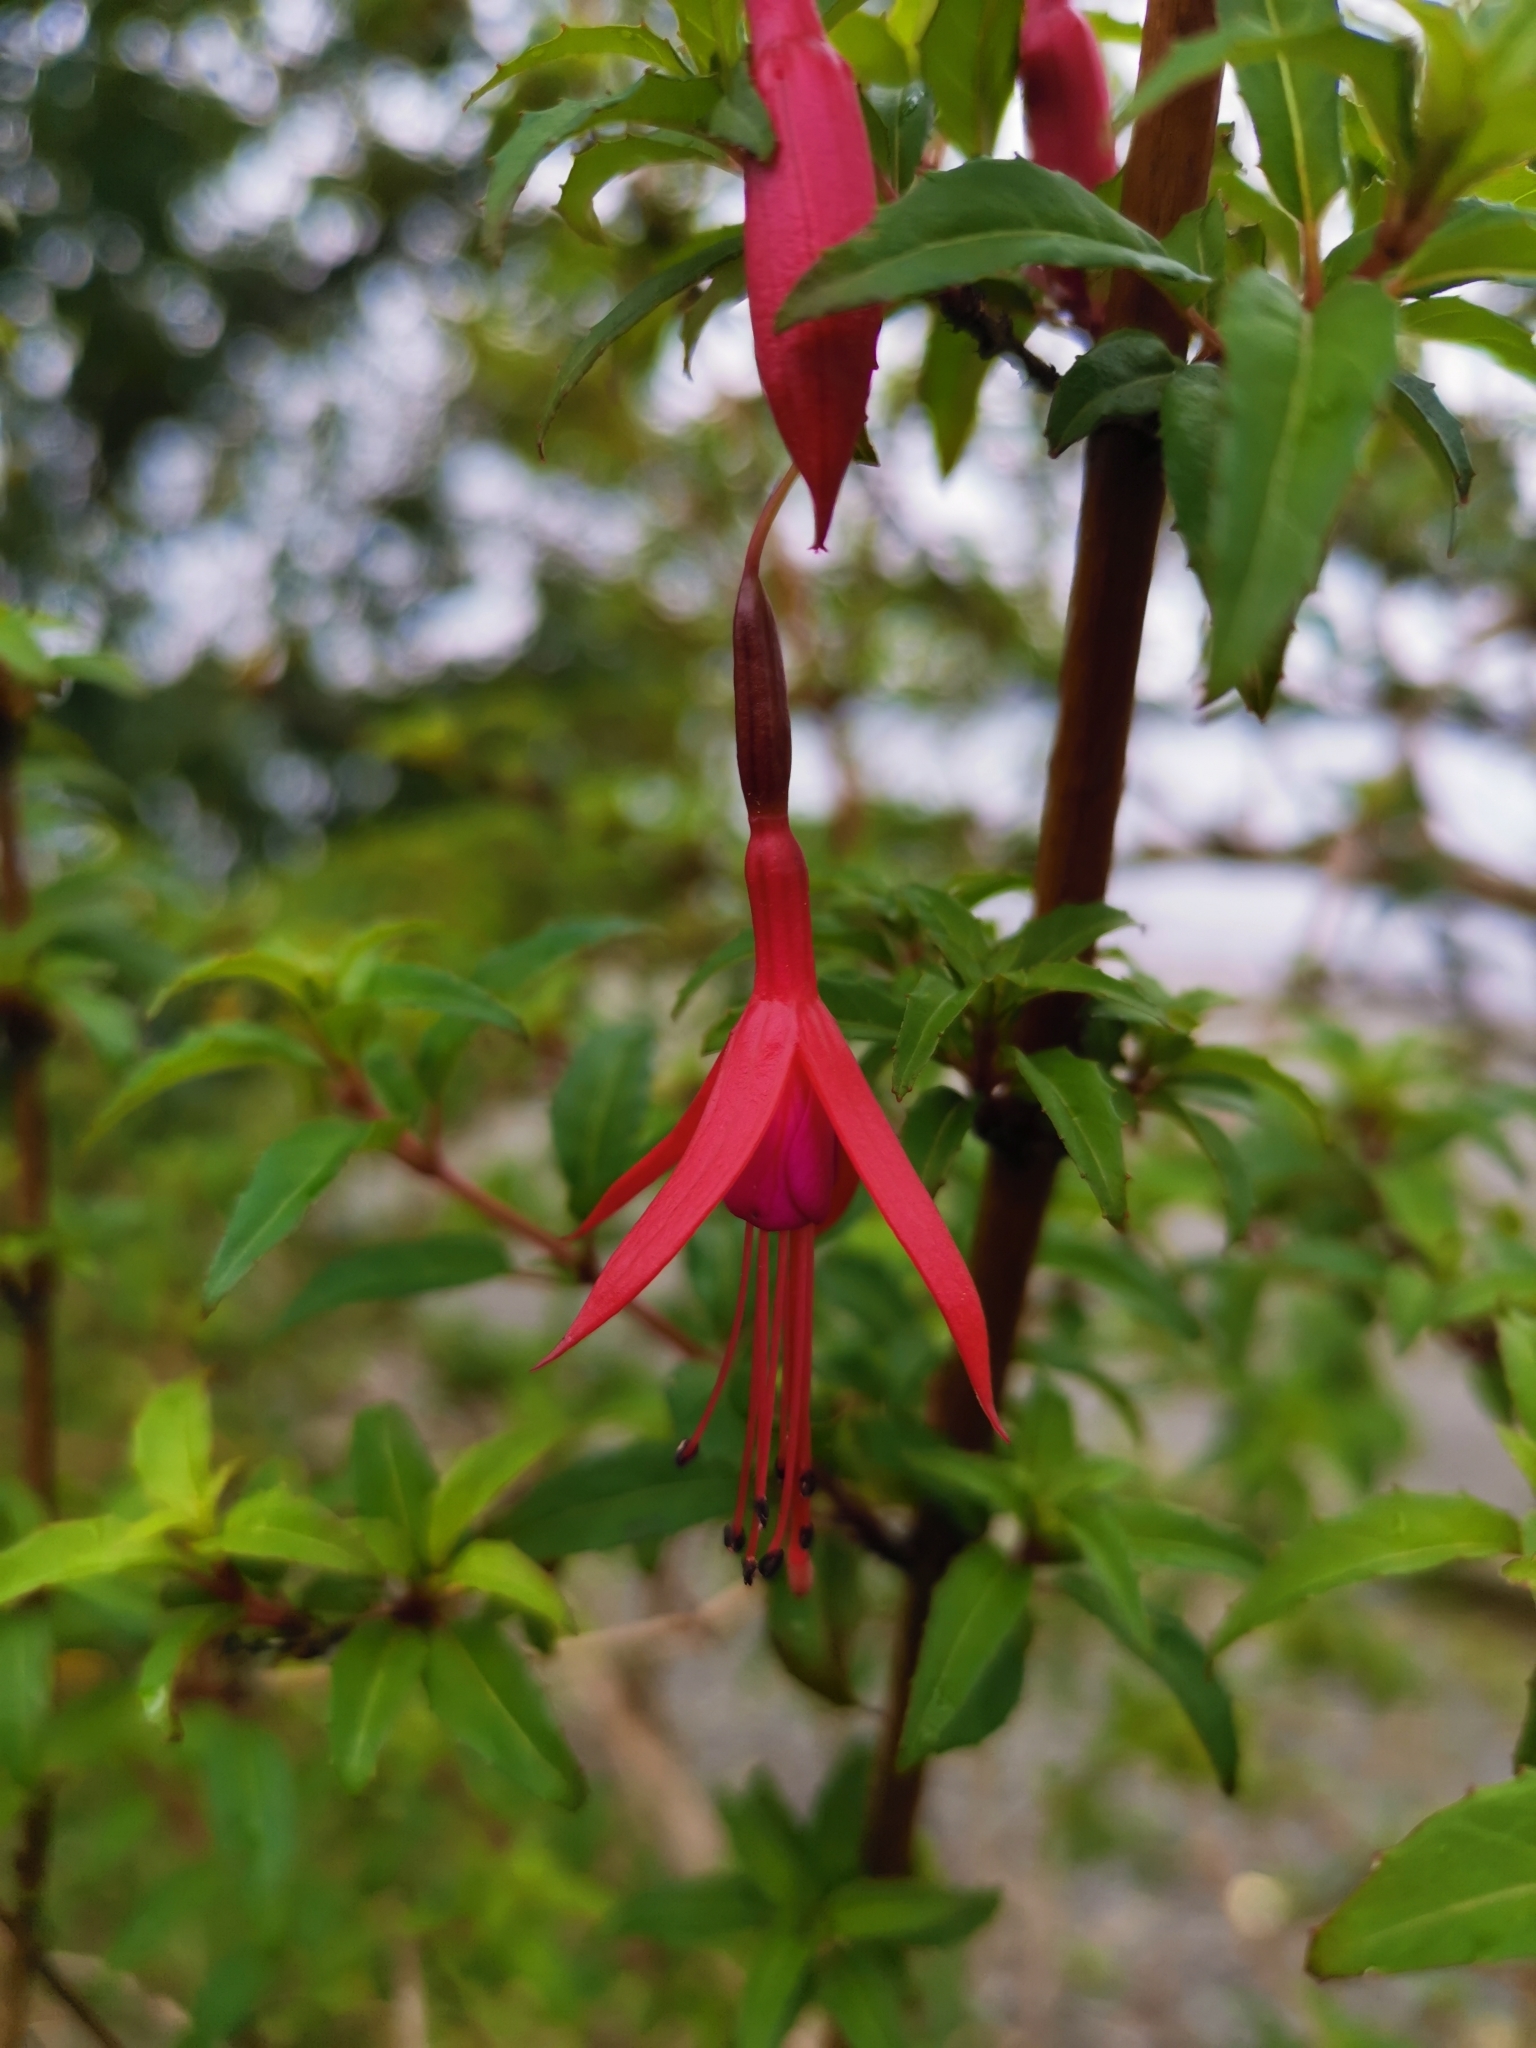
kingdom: Plantae
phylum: Tracheophyta
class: Magnoliopsida
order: Myrtales
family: Onagraceae
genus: Fuchsia
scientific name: Fuchsia magellanica
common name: Hardy fuchsia
